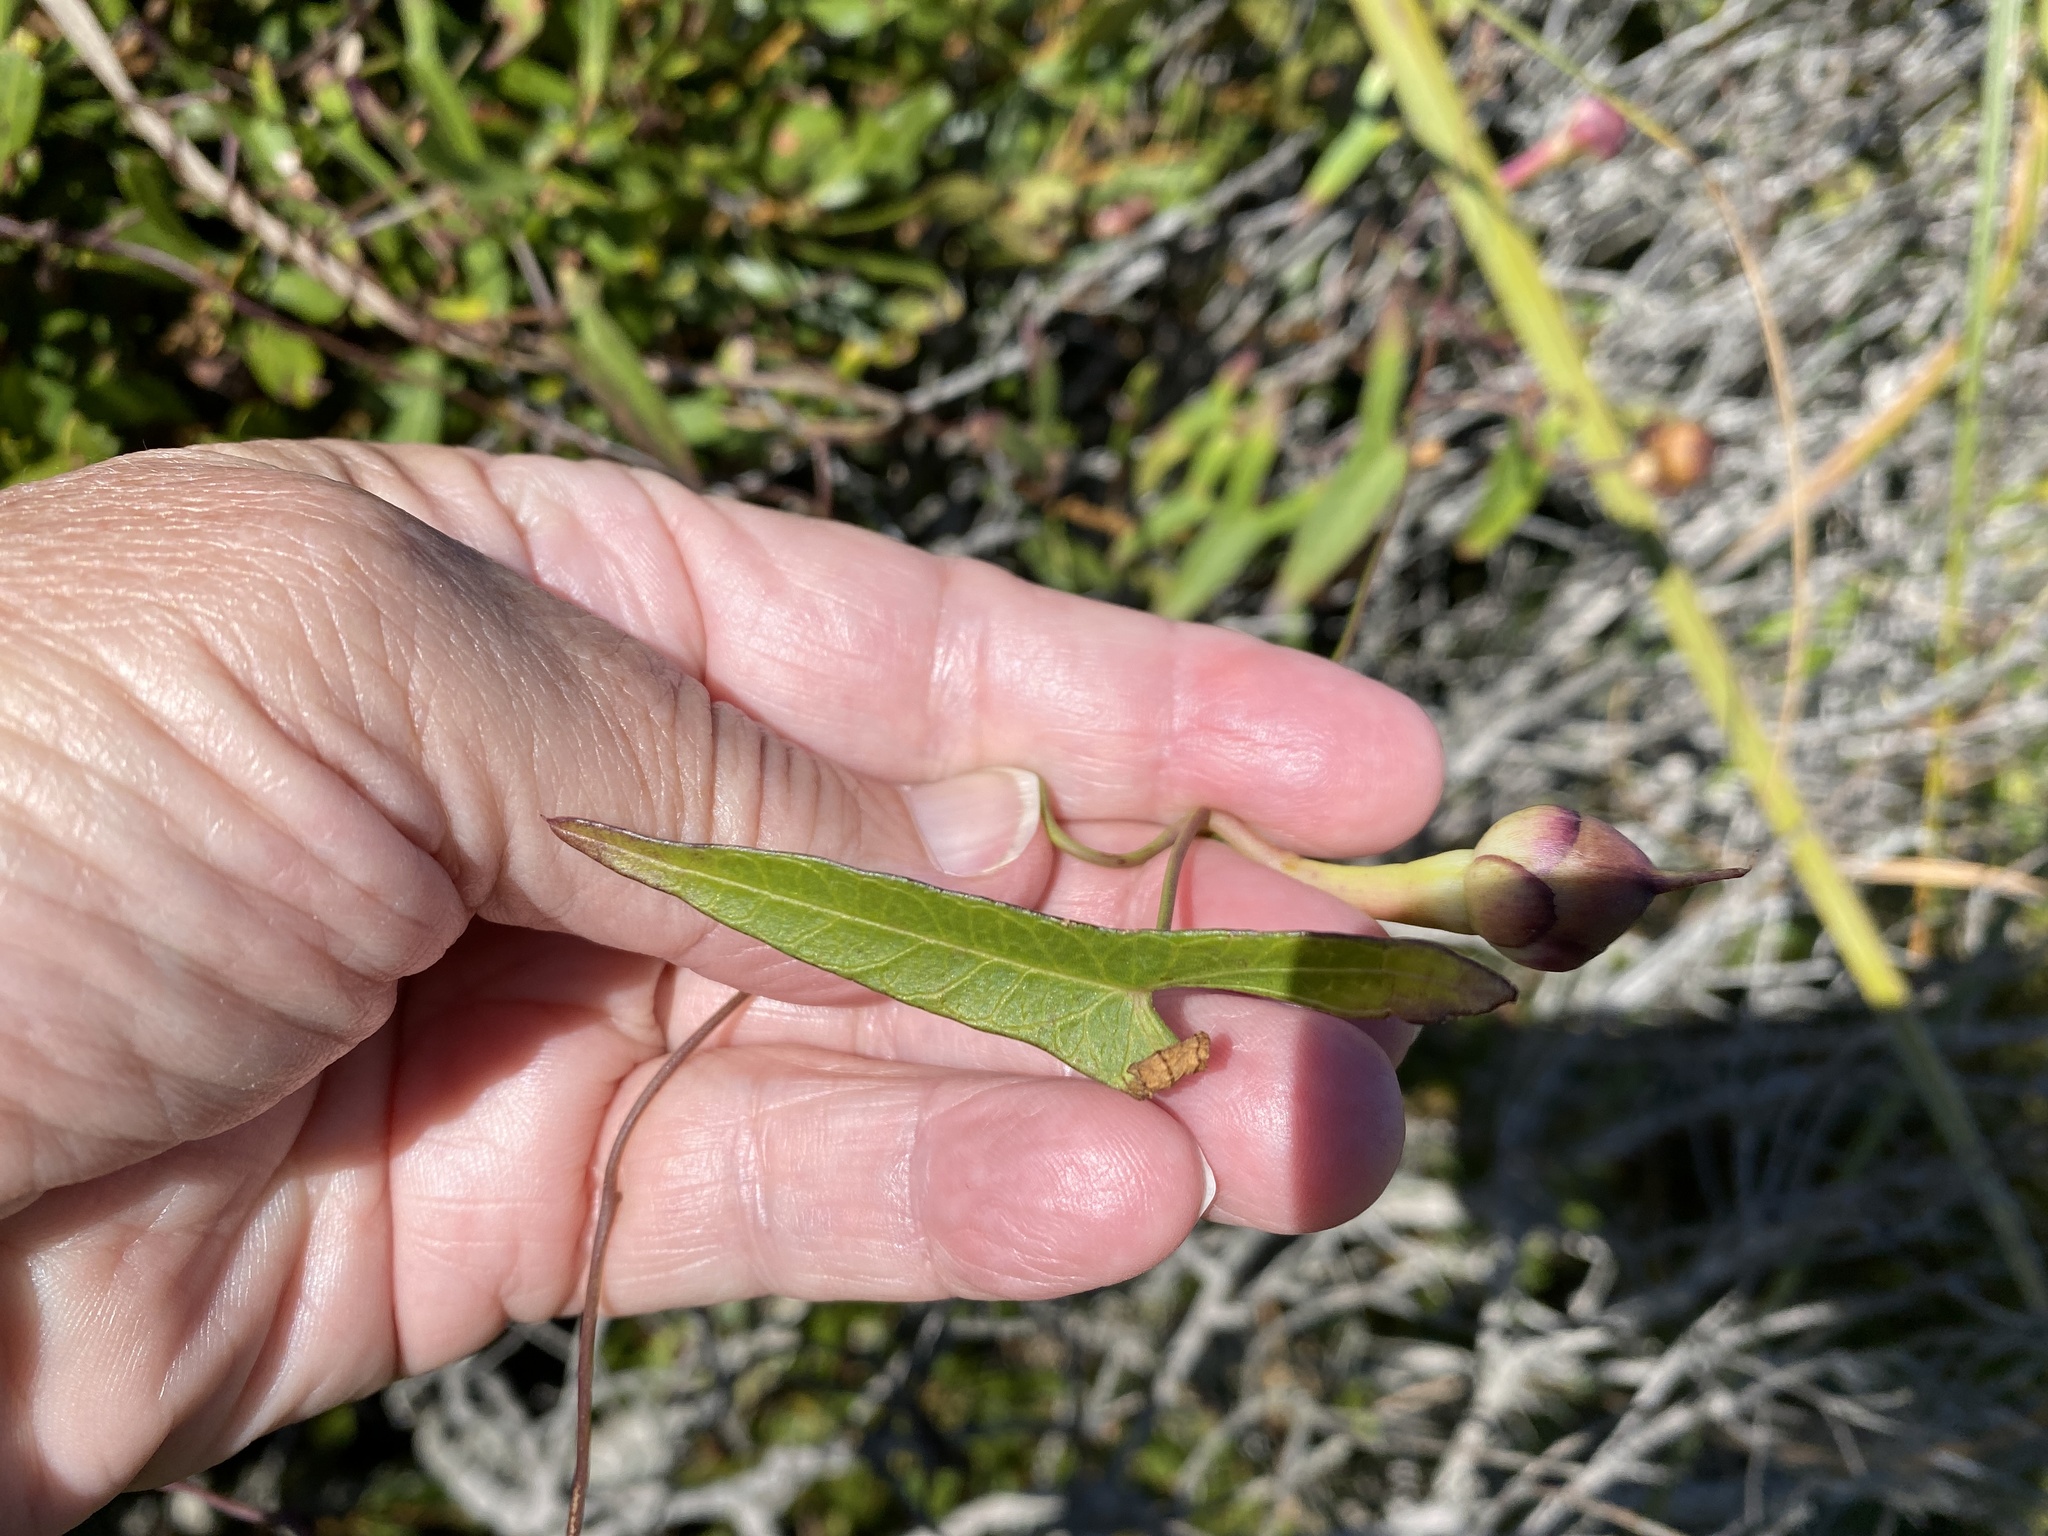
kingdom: Plantae
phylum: Tracheophyta
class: Magnoliopsida
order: Solanales
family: Convolvulaceae
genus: Ipomoea
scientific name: Ipomoea sagittata
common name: Saltmarsh morning glory
